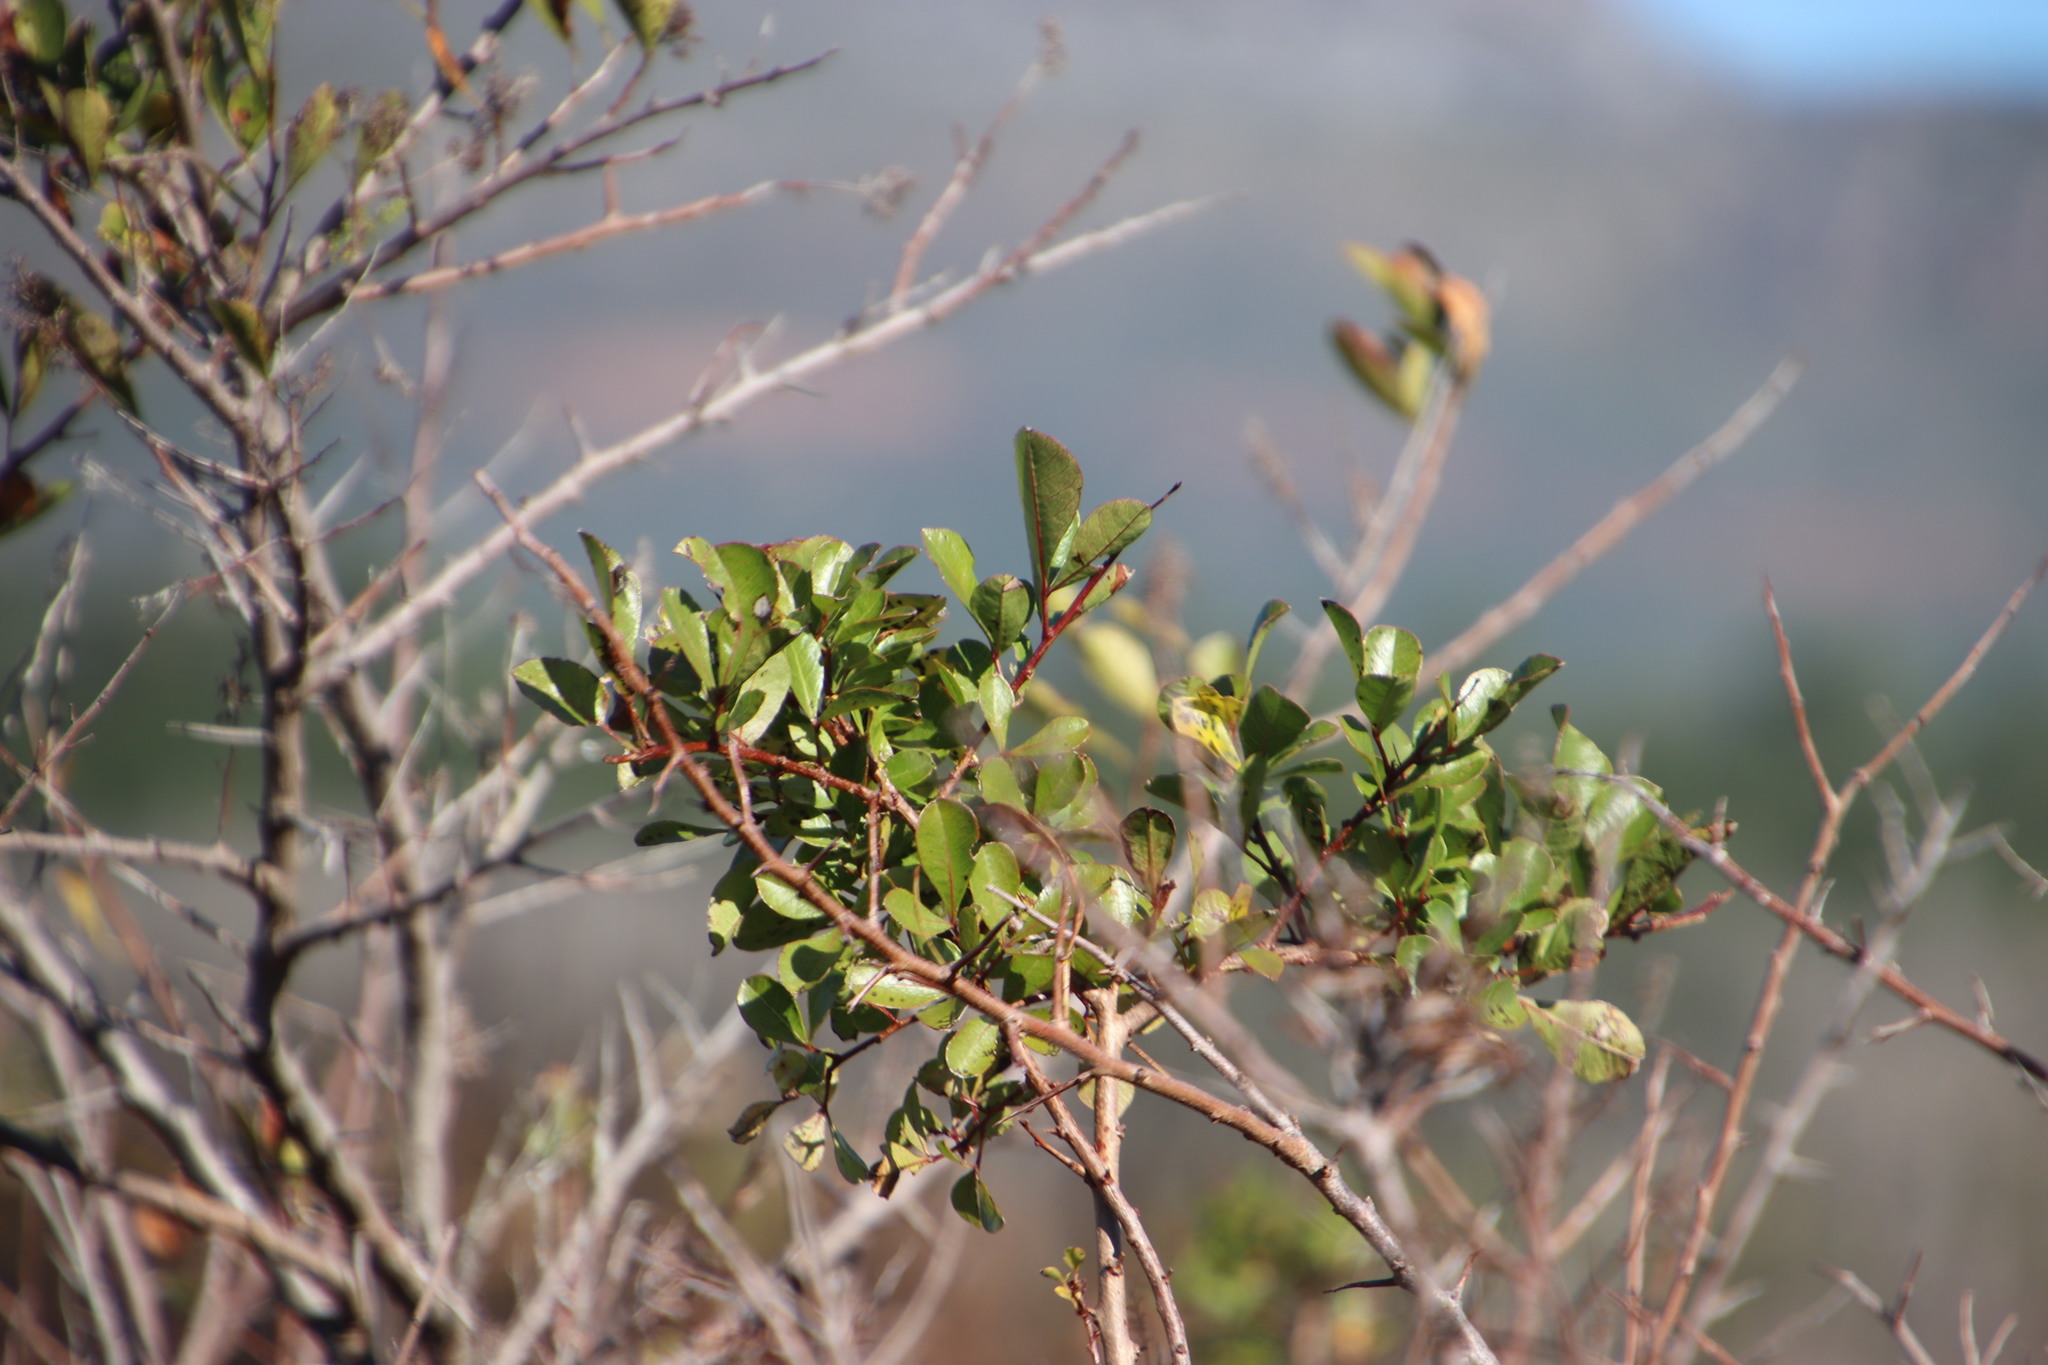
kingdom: Plantae
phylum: Tracheophyta
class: Magnoliopsida
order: Sapindales
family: Anacardiaceae
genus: Searsia
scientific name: Searsia laevigata
